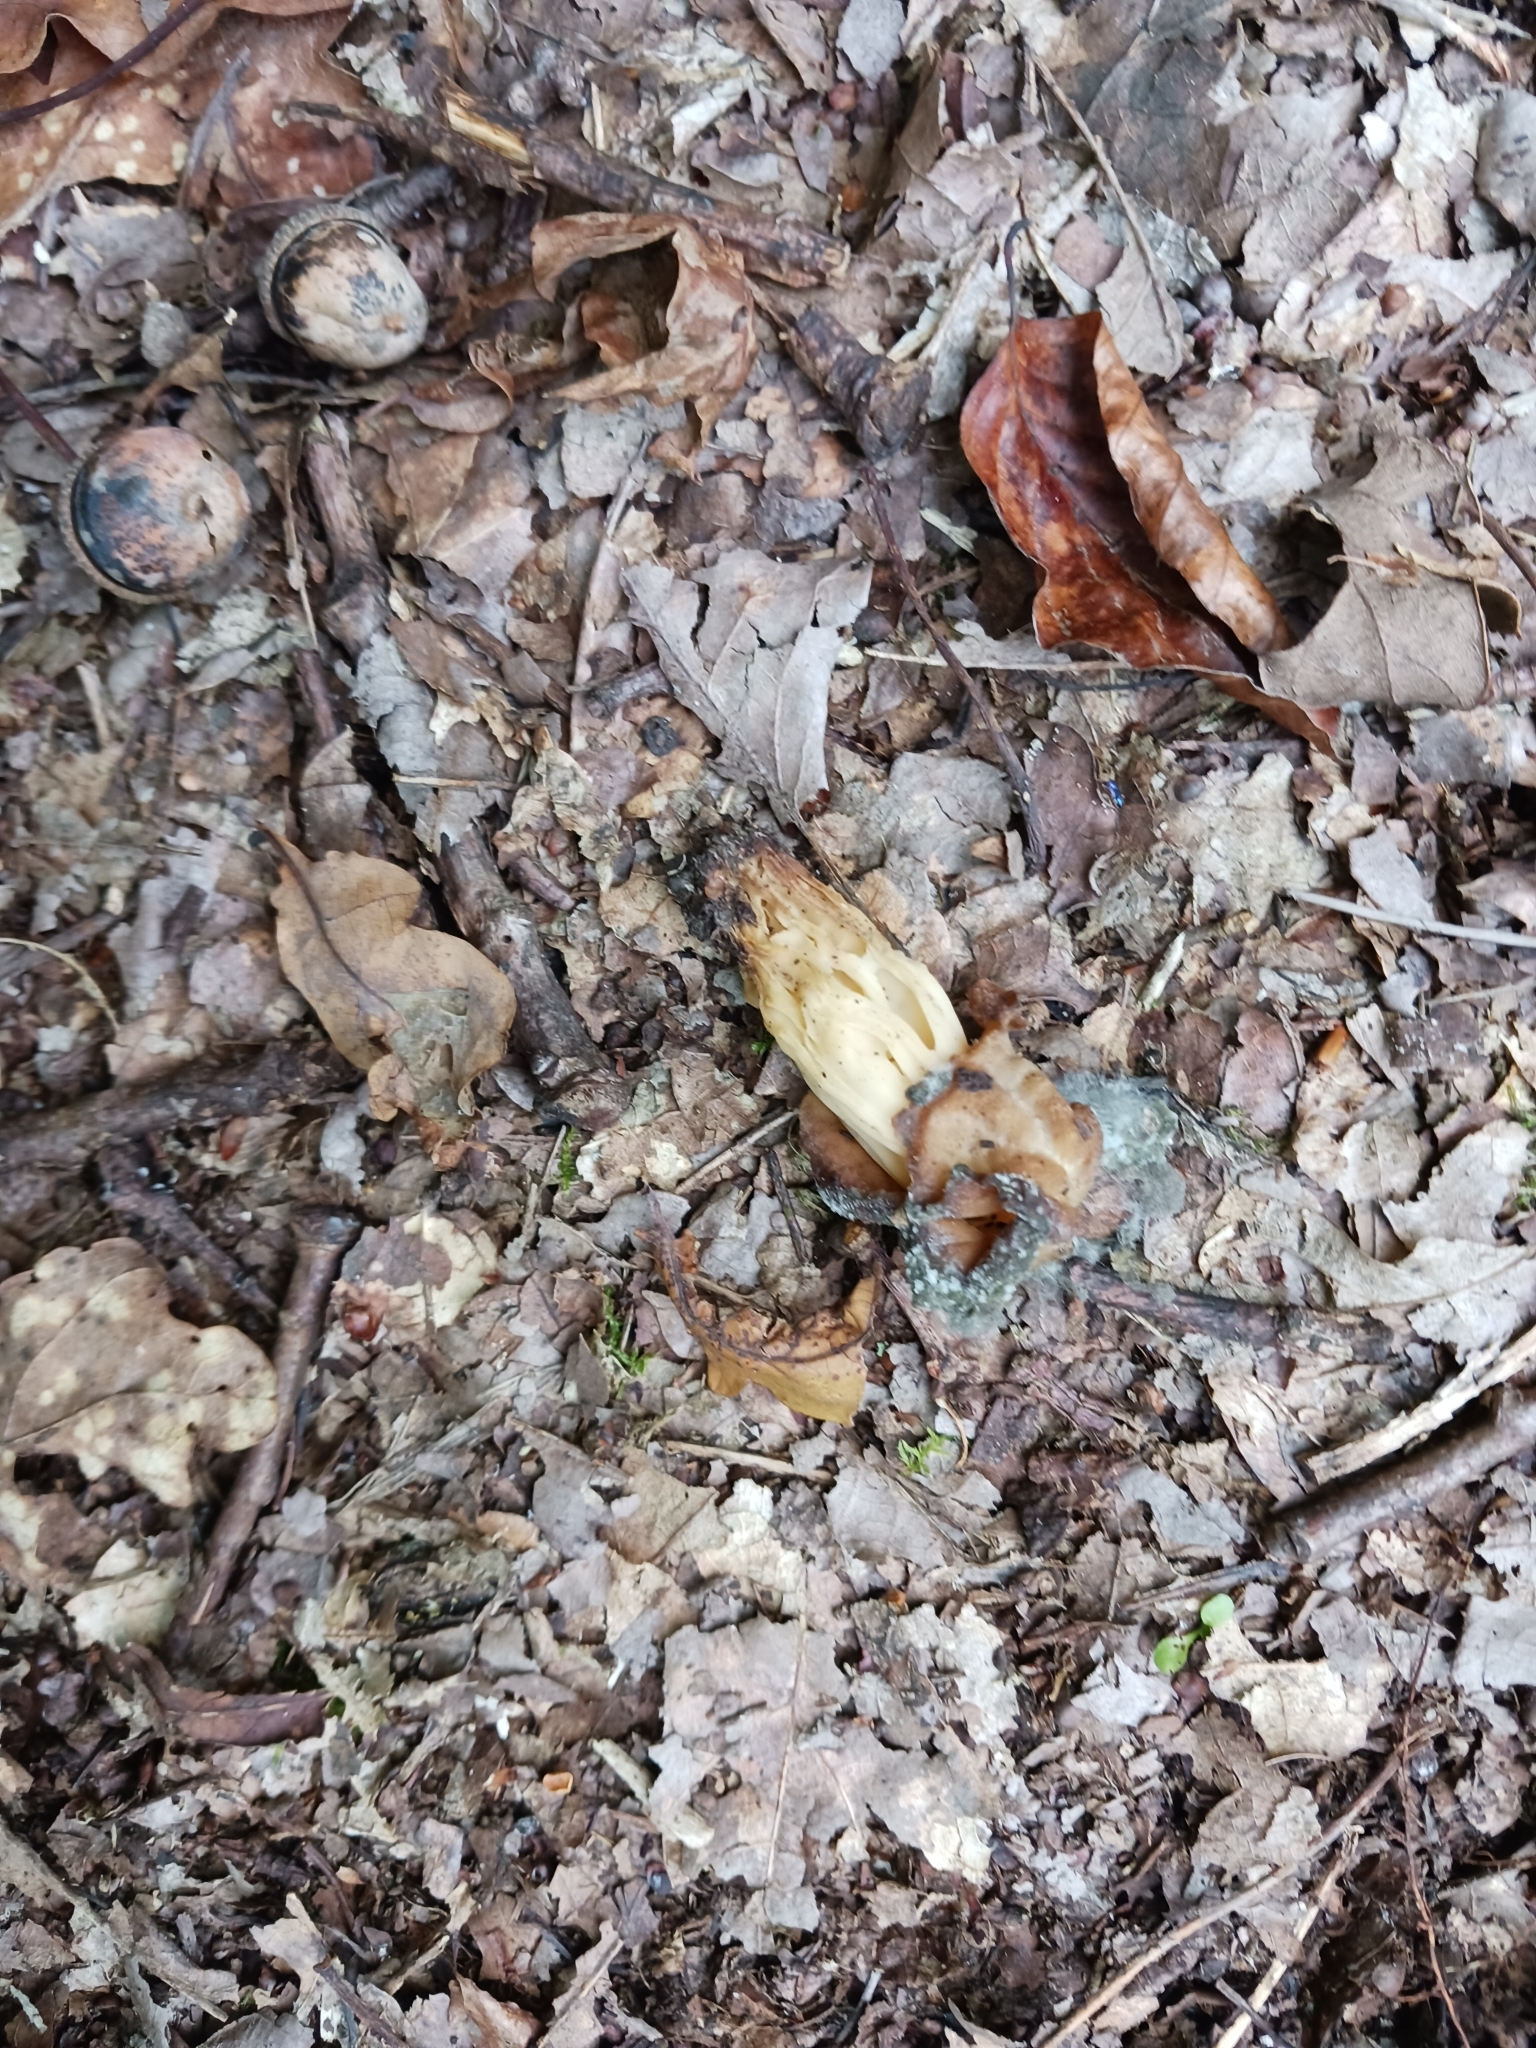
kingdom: Fungi
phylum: Ascomycota
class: Pezizomycetes
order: Pezizales
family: Helvellaceae
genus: Helvella
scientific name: Helvella crispa
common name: White saddle
